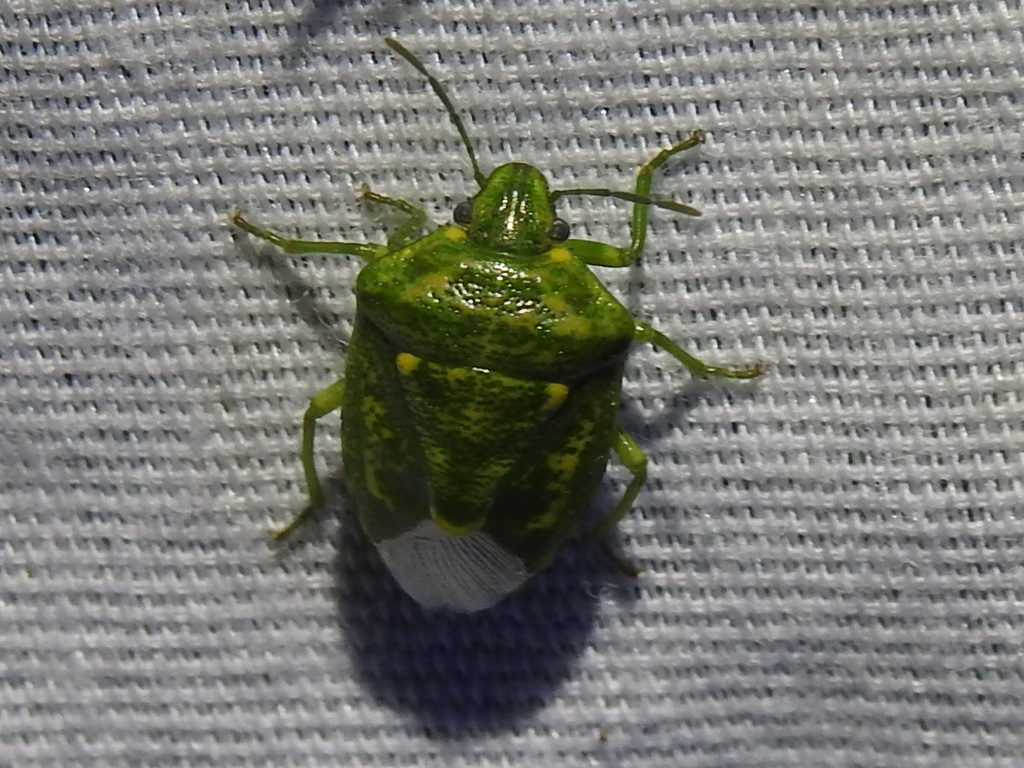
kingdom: Animalia
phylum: Arthropoda
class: Insecta
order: Hemiptera
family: Pentatomidae
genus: Banasa
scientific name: Banasa euchlora
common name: Cedar berry bug
